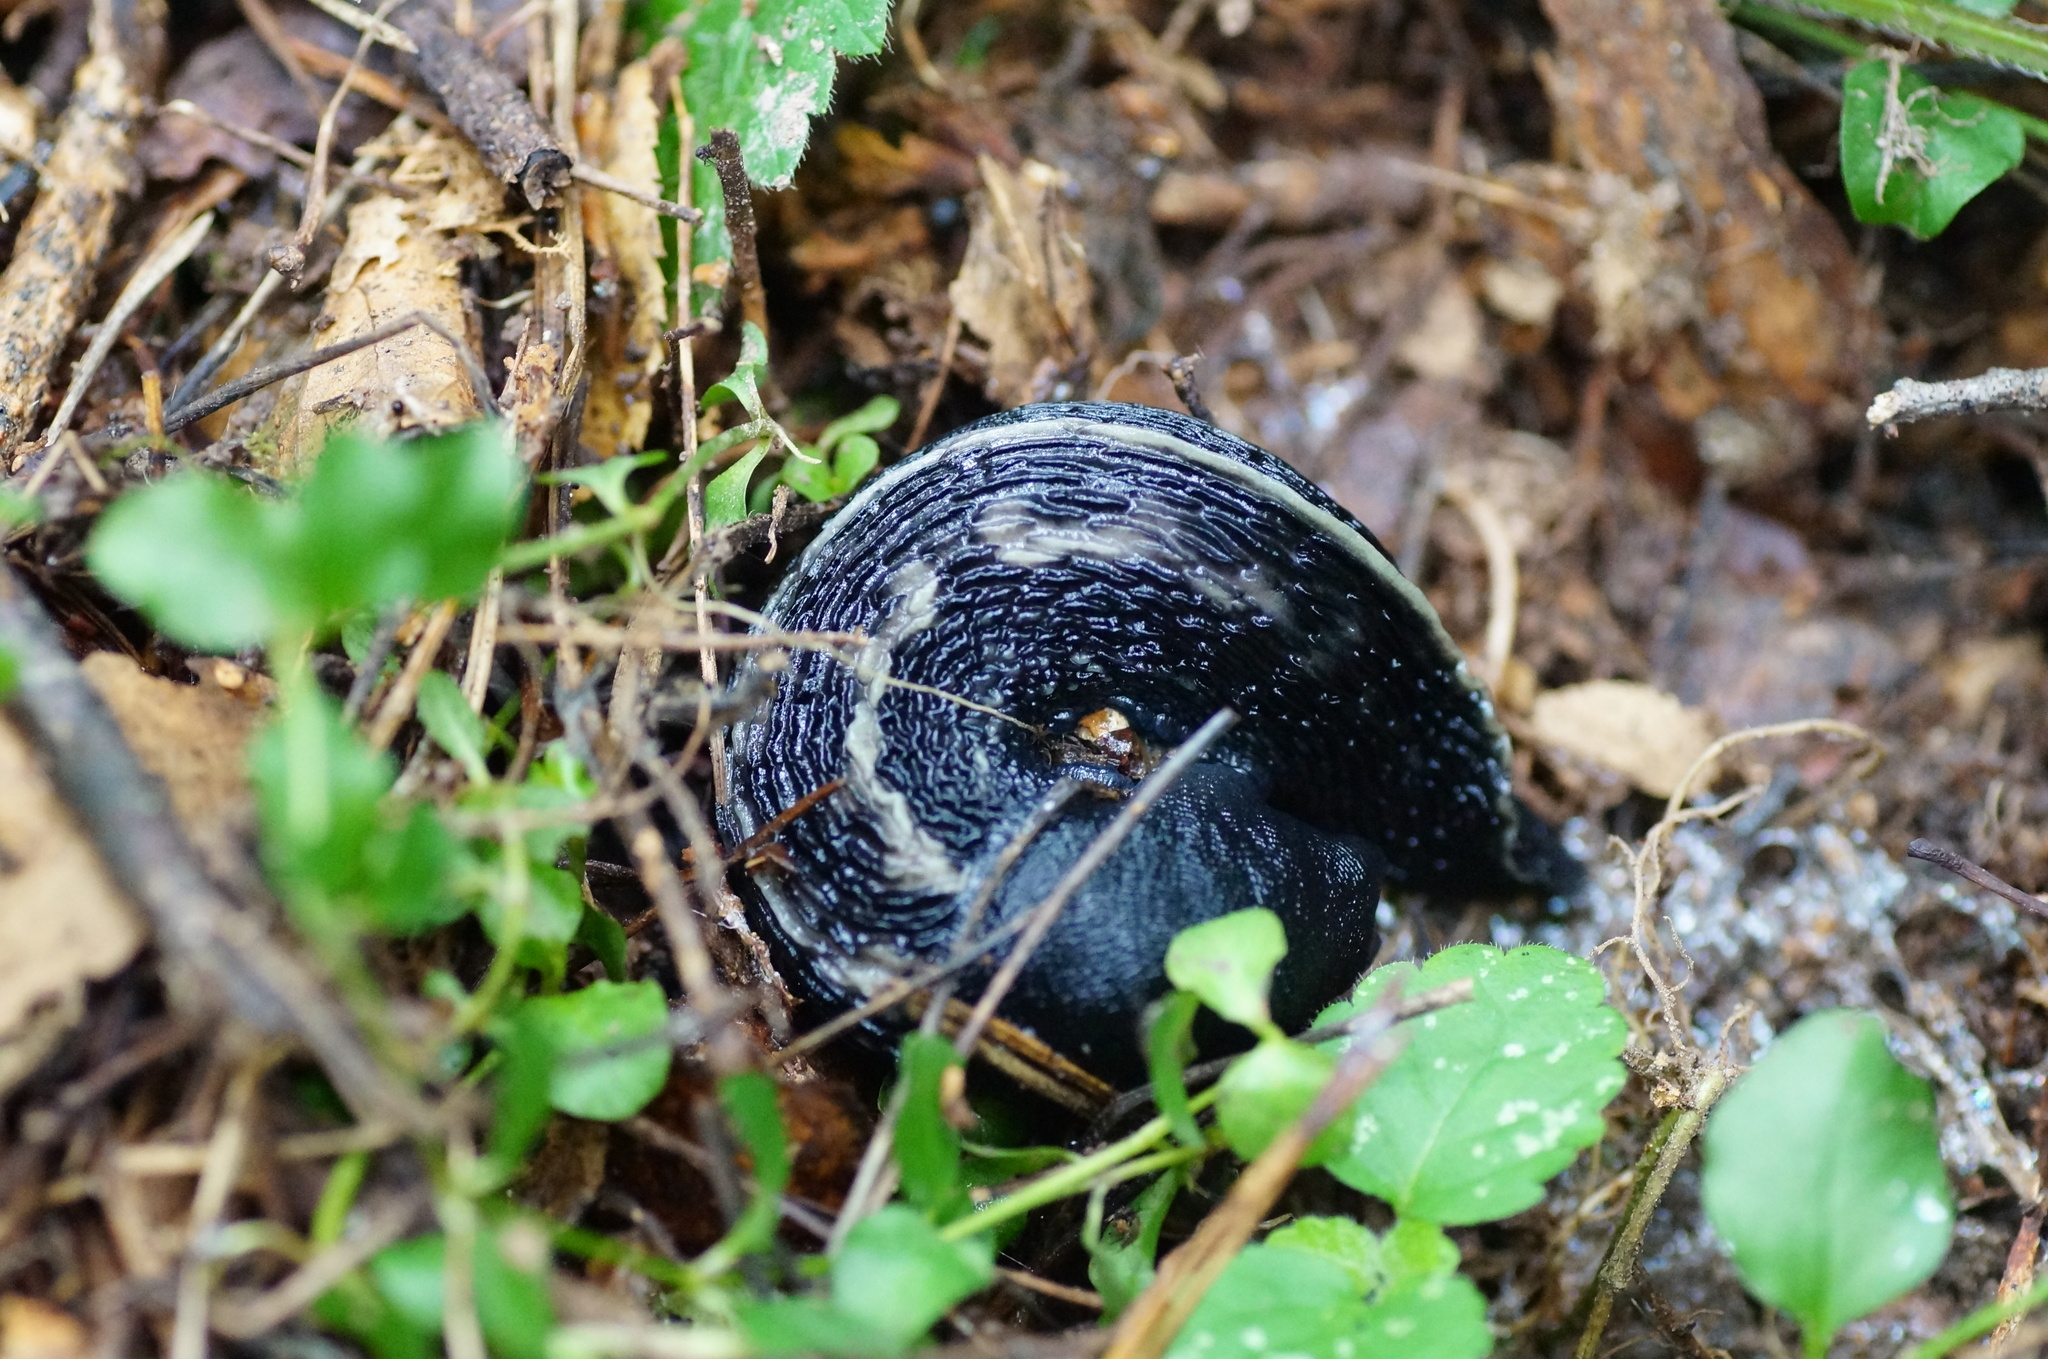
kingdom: Animalia
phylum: Mollusca
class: Gastropoda
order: Stylommatophora
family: Limacidae
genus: Limax
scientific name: Limax cinereoniger
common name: Ash-black slug
